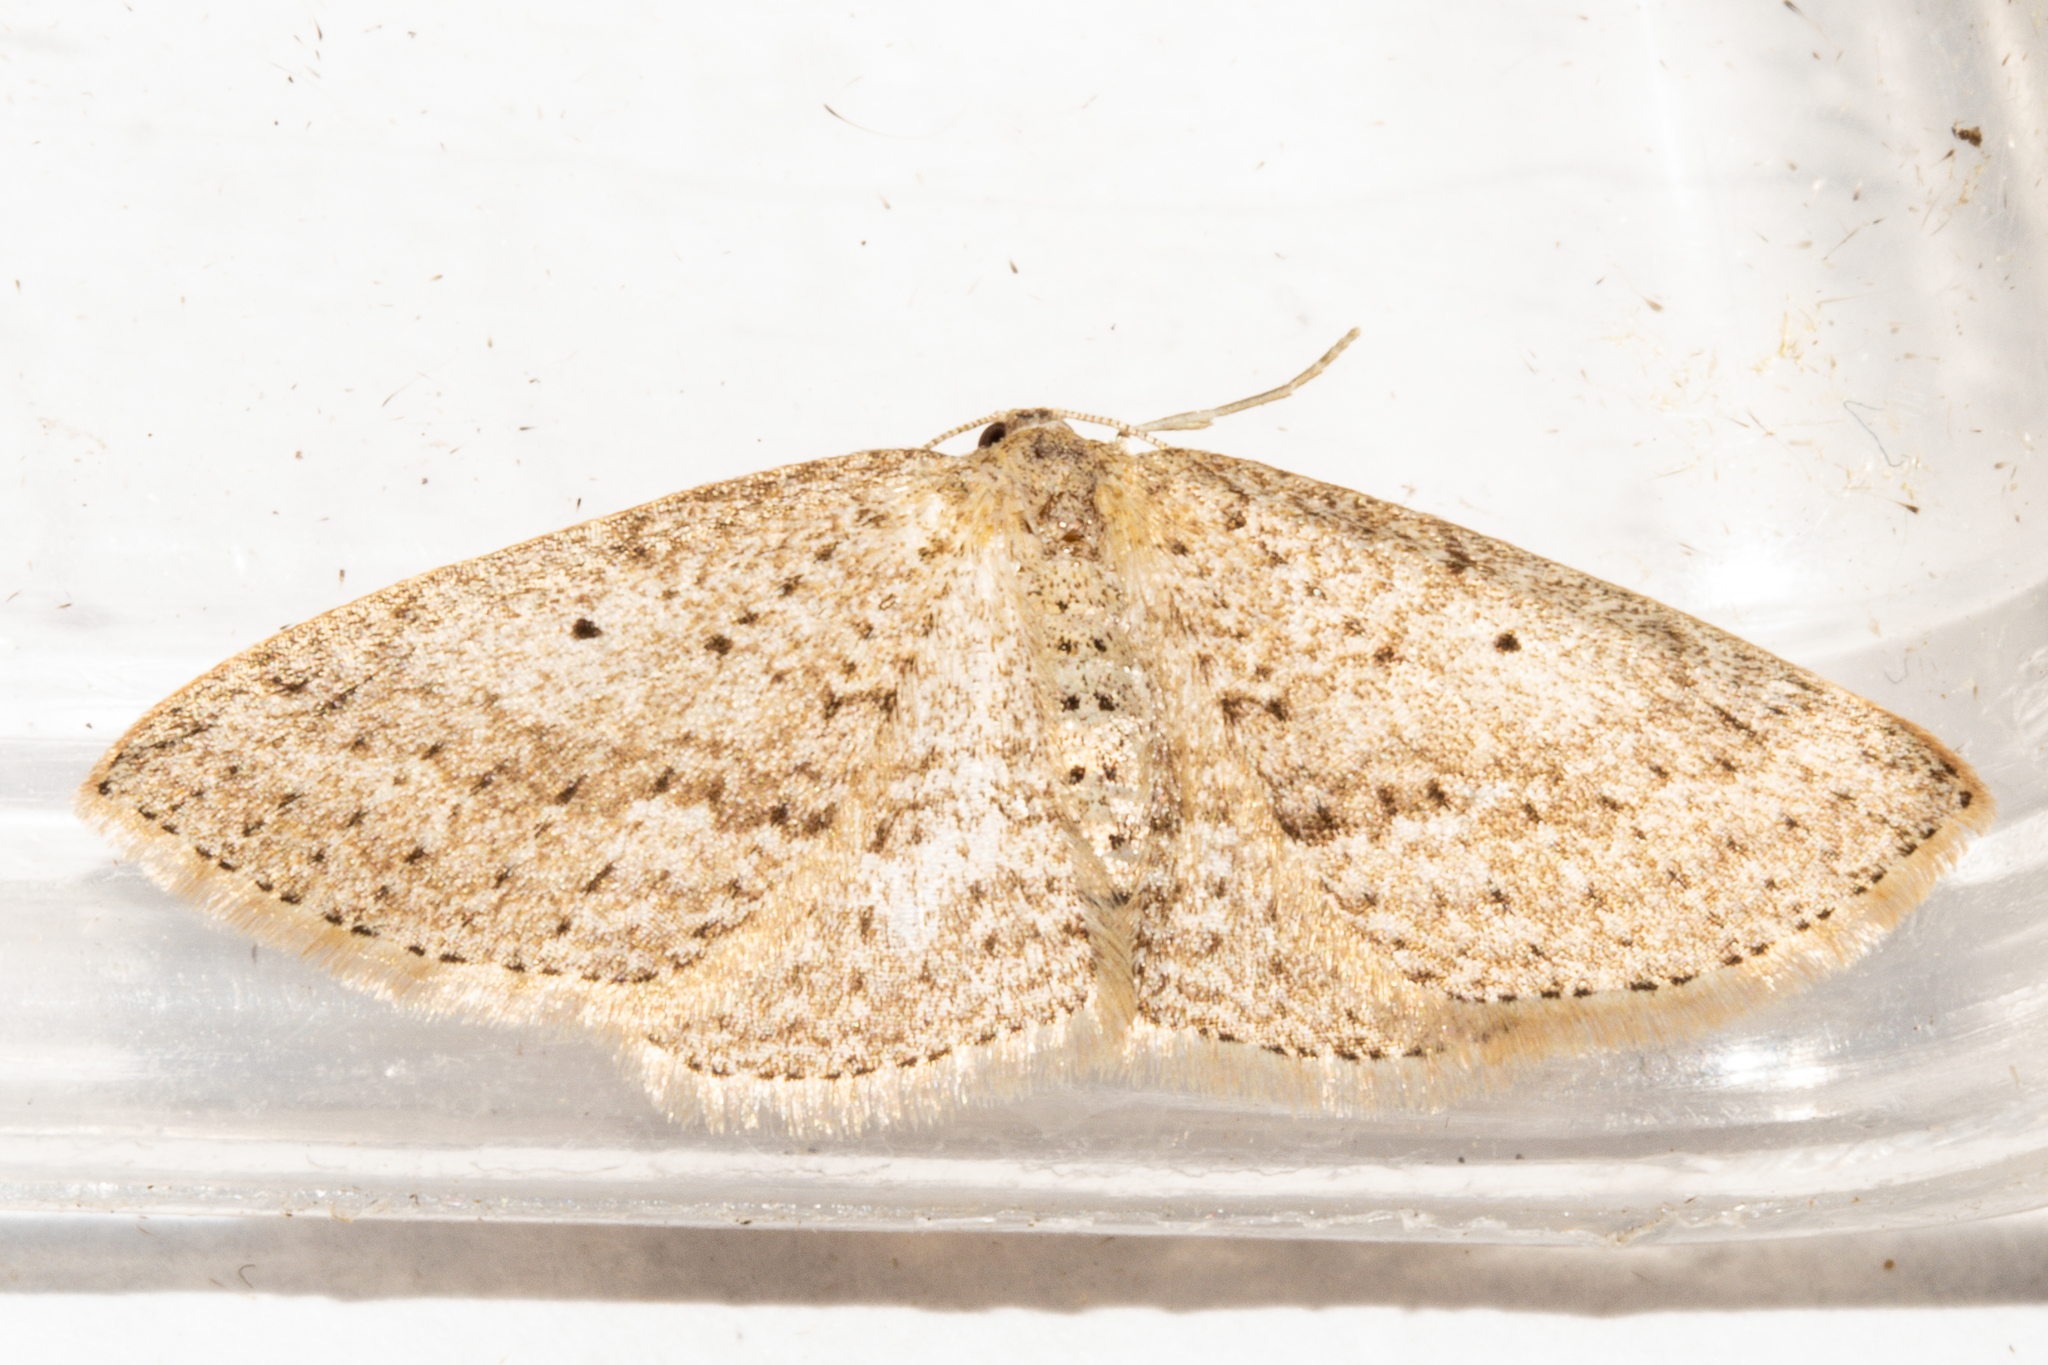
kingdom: Animalia
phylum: Arthropoda
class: Insecta
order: Lepidoptera
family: Geometridae
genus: Poecilasthena
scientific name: Poecilasthena schistaria
